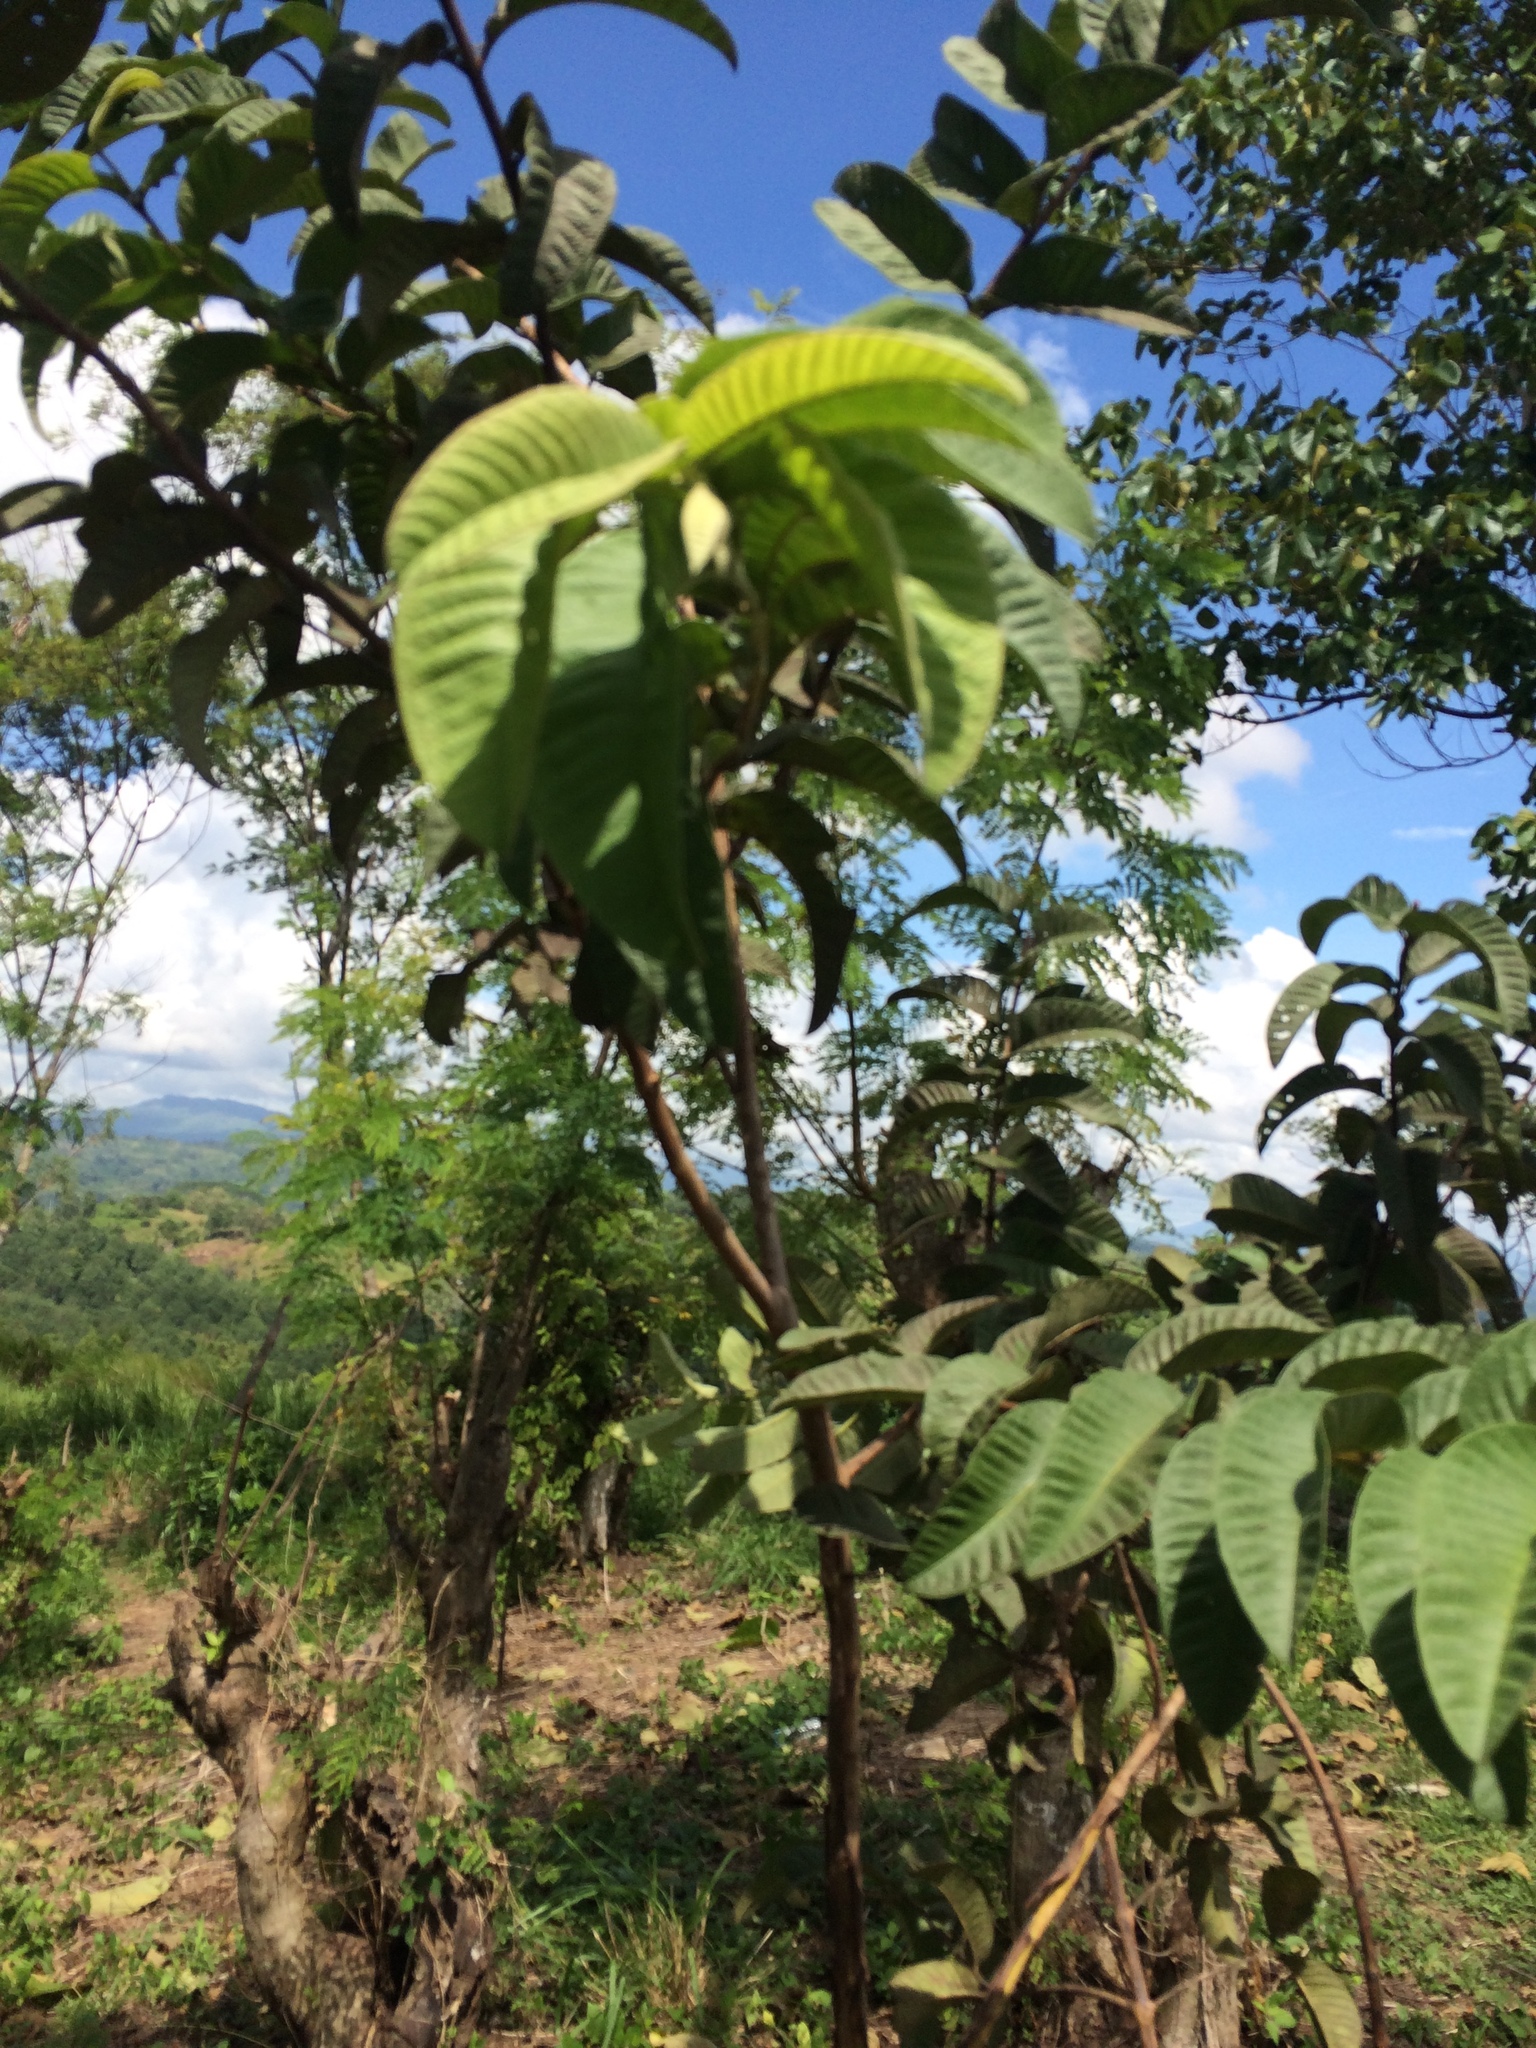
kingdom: Plantae
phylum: Tracheophyta
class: Magnoliopsida
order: Myrtales
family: Myrtaceae
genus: Psidium
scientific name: Psidium guajava
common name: Guava
